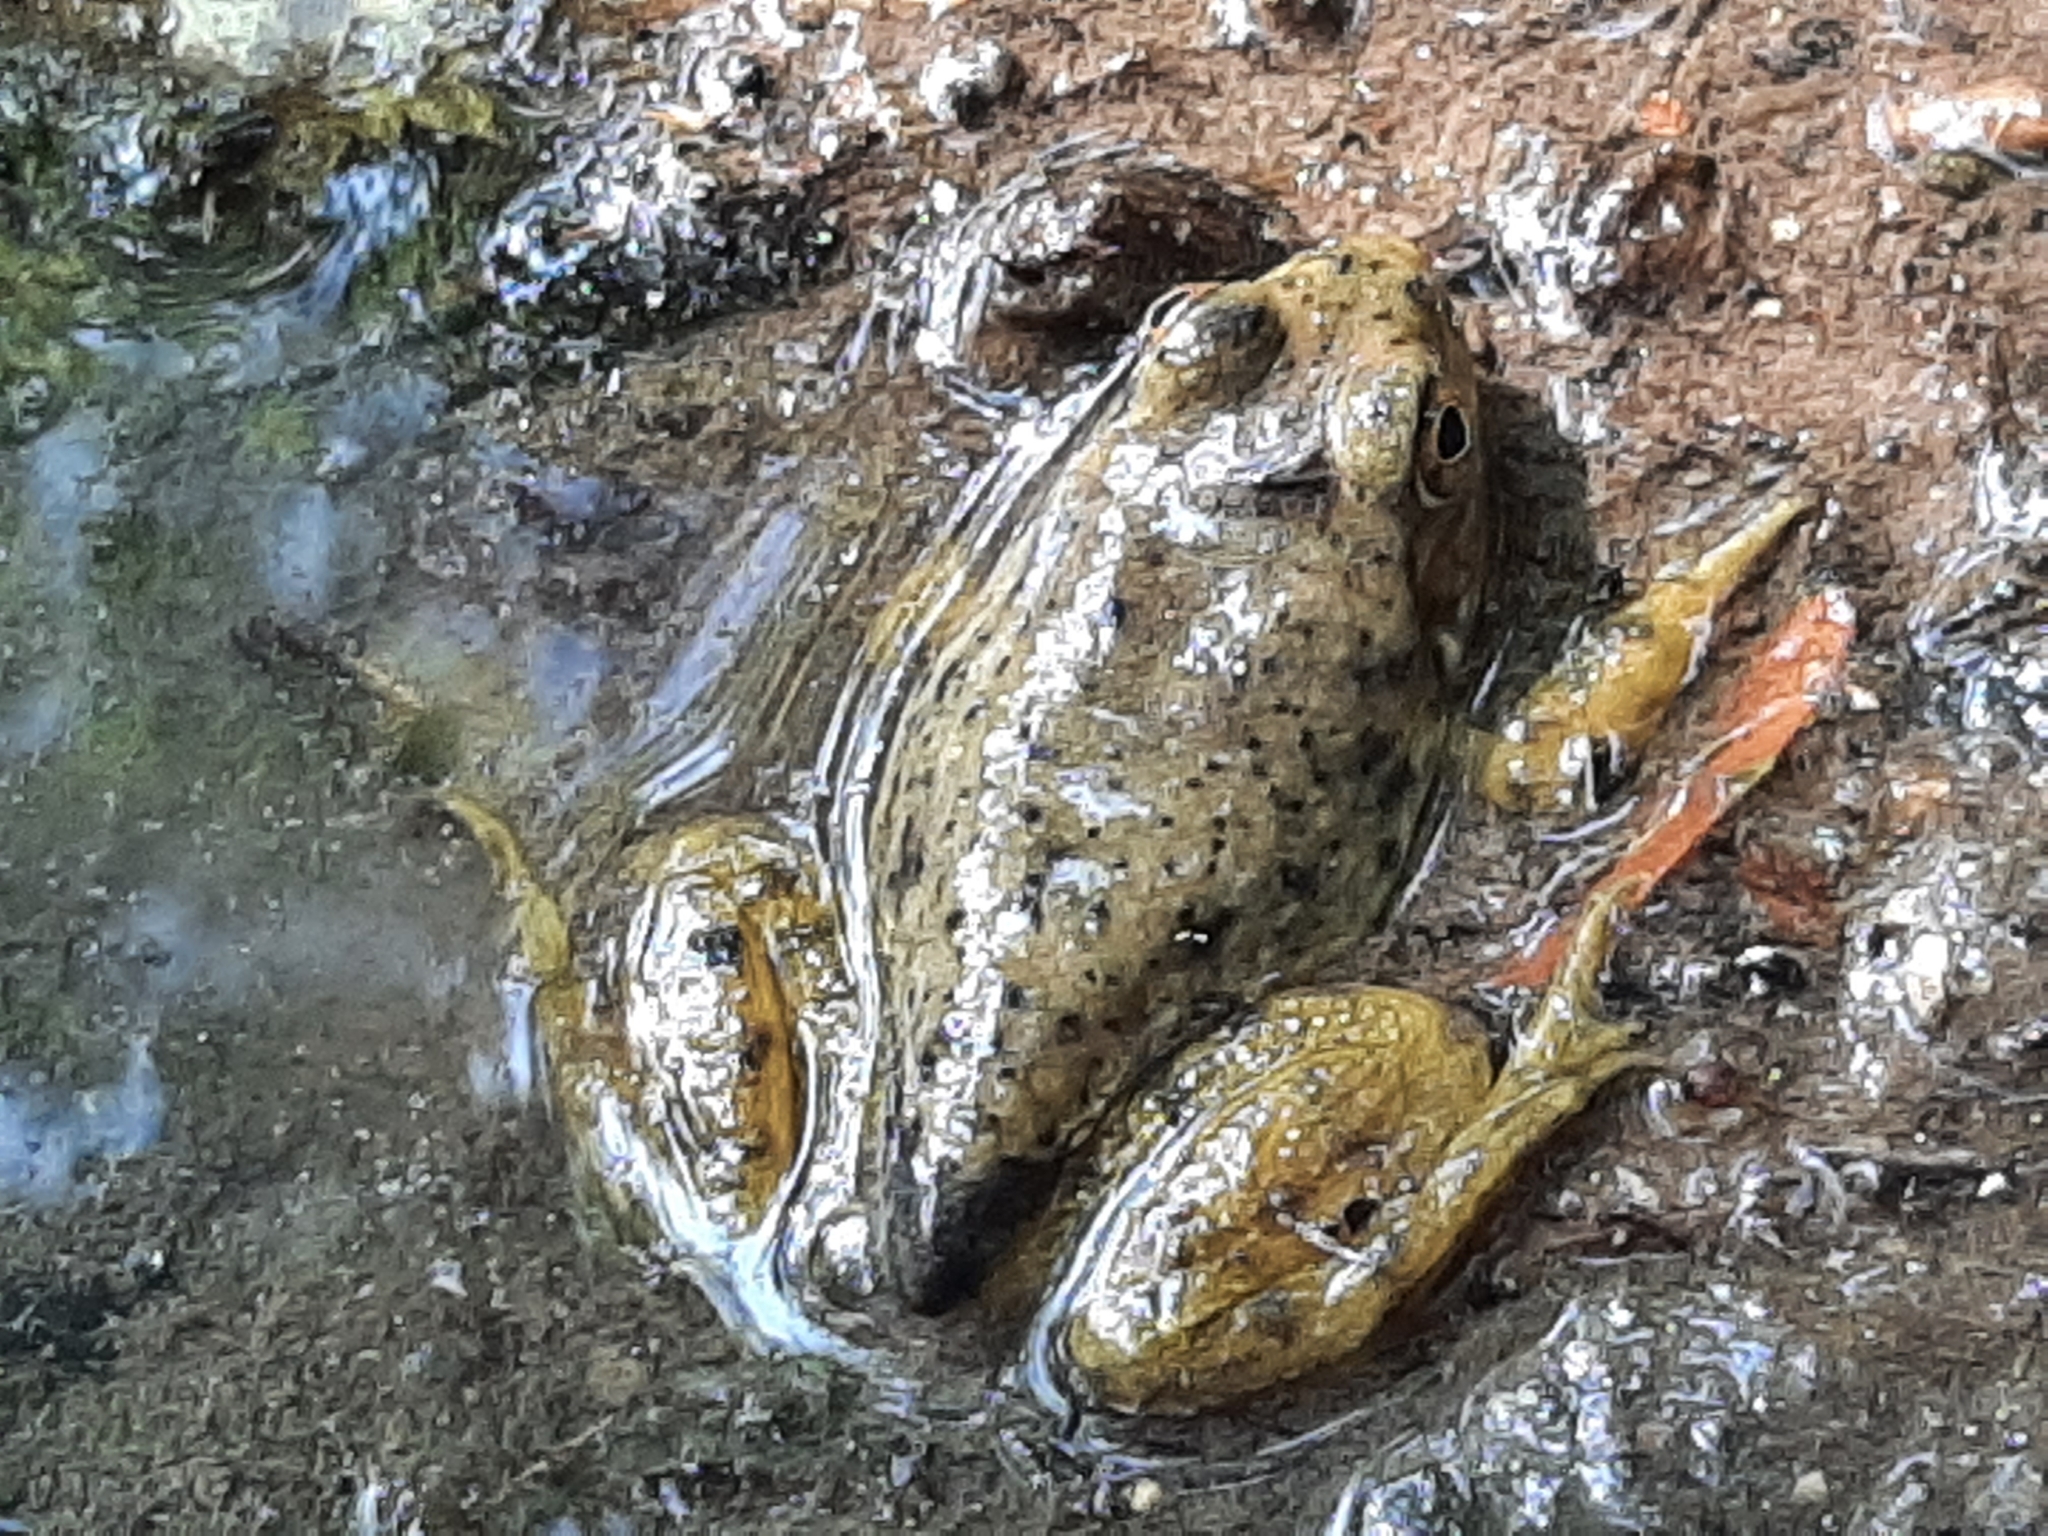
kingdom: Animalia
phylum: Chordata
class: Amphibia
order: Anura
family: Ranidae
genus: Lithobates
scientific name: Lithobates catesbeianus
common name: American bullfrog
